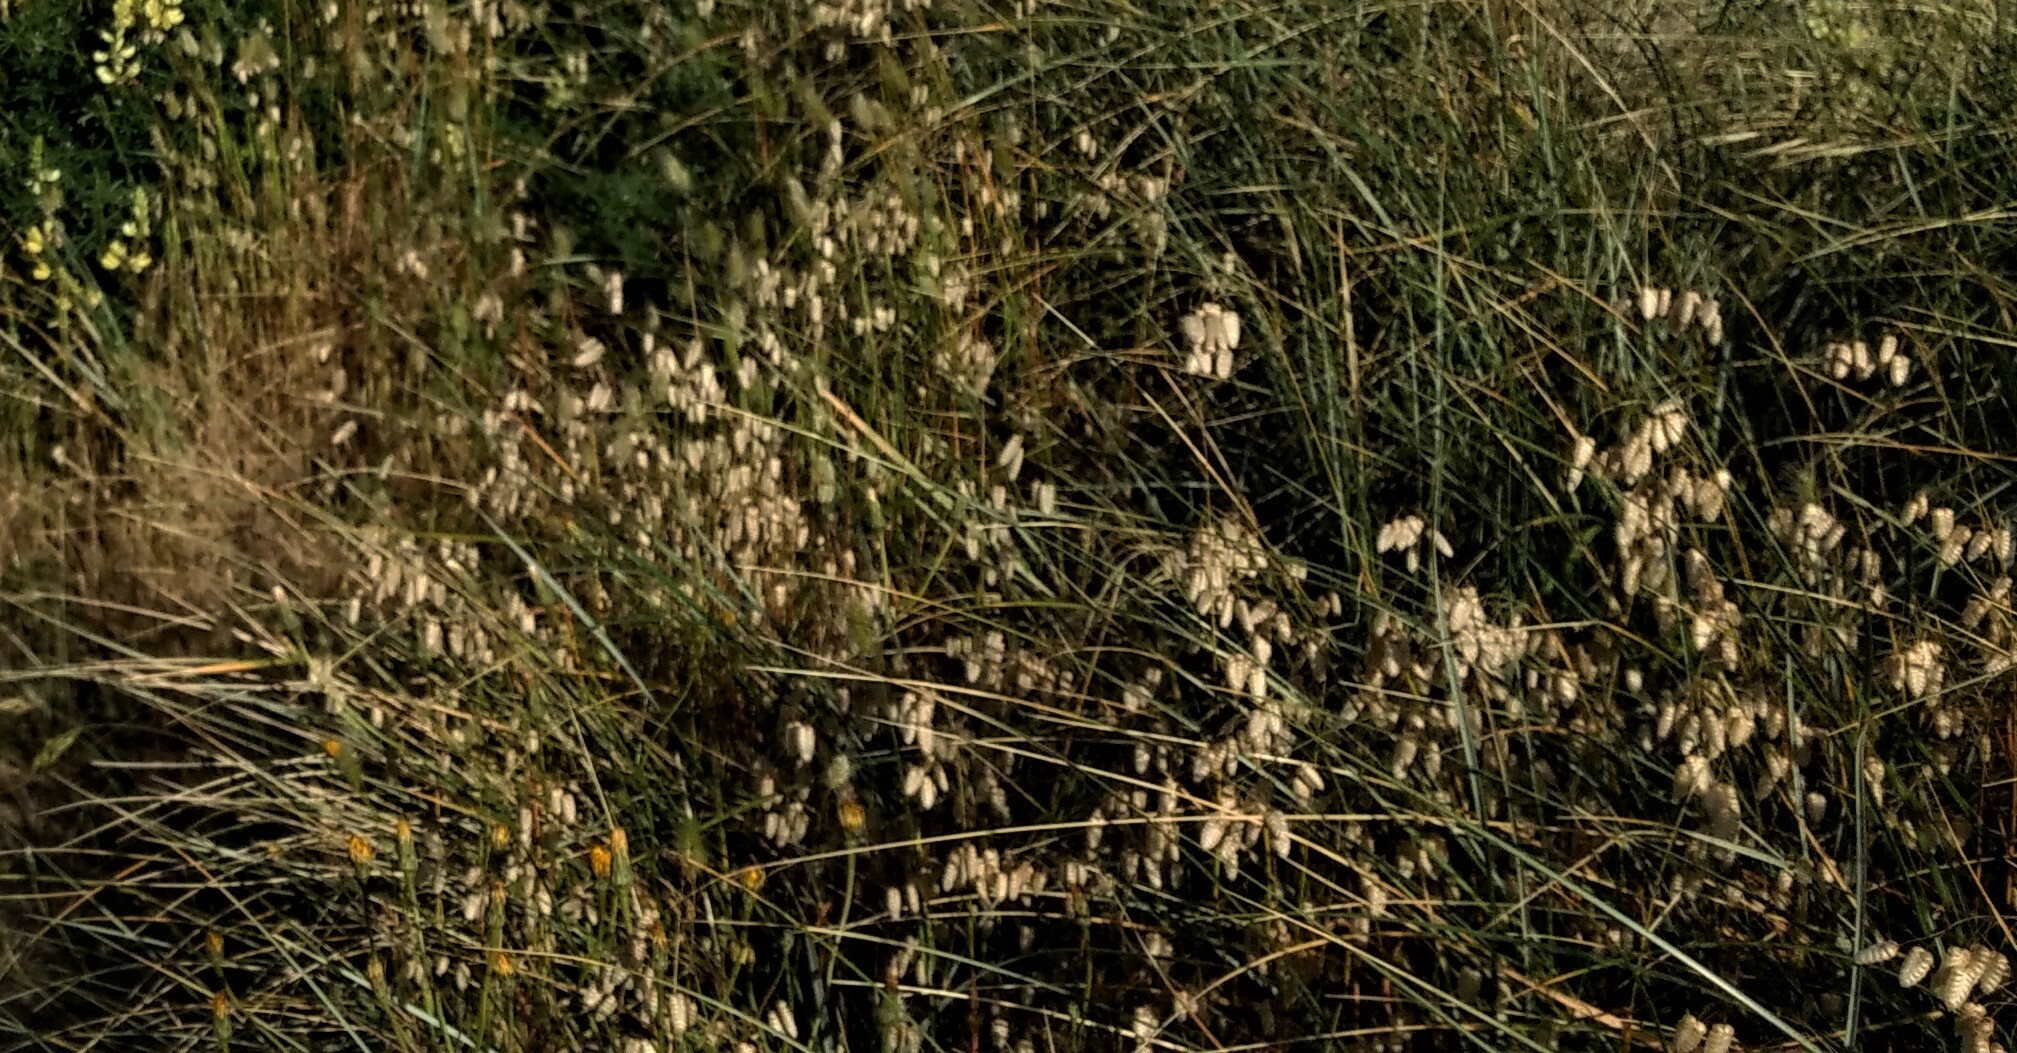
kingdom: Plantae
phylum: Tracheophyta
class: Liliopsida
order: Poales
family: Poaceae
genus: Briza
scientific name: Briza maxima
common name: Big quakinggrass
